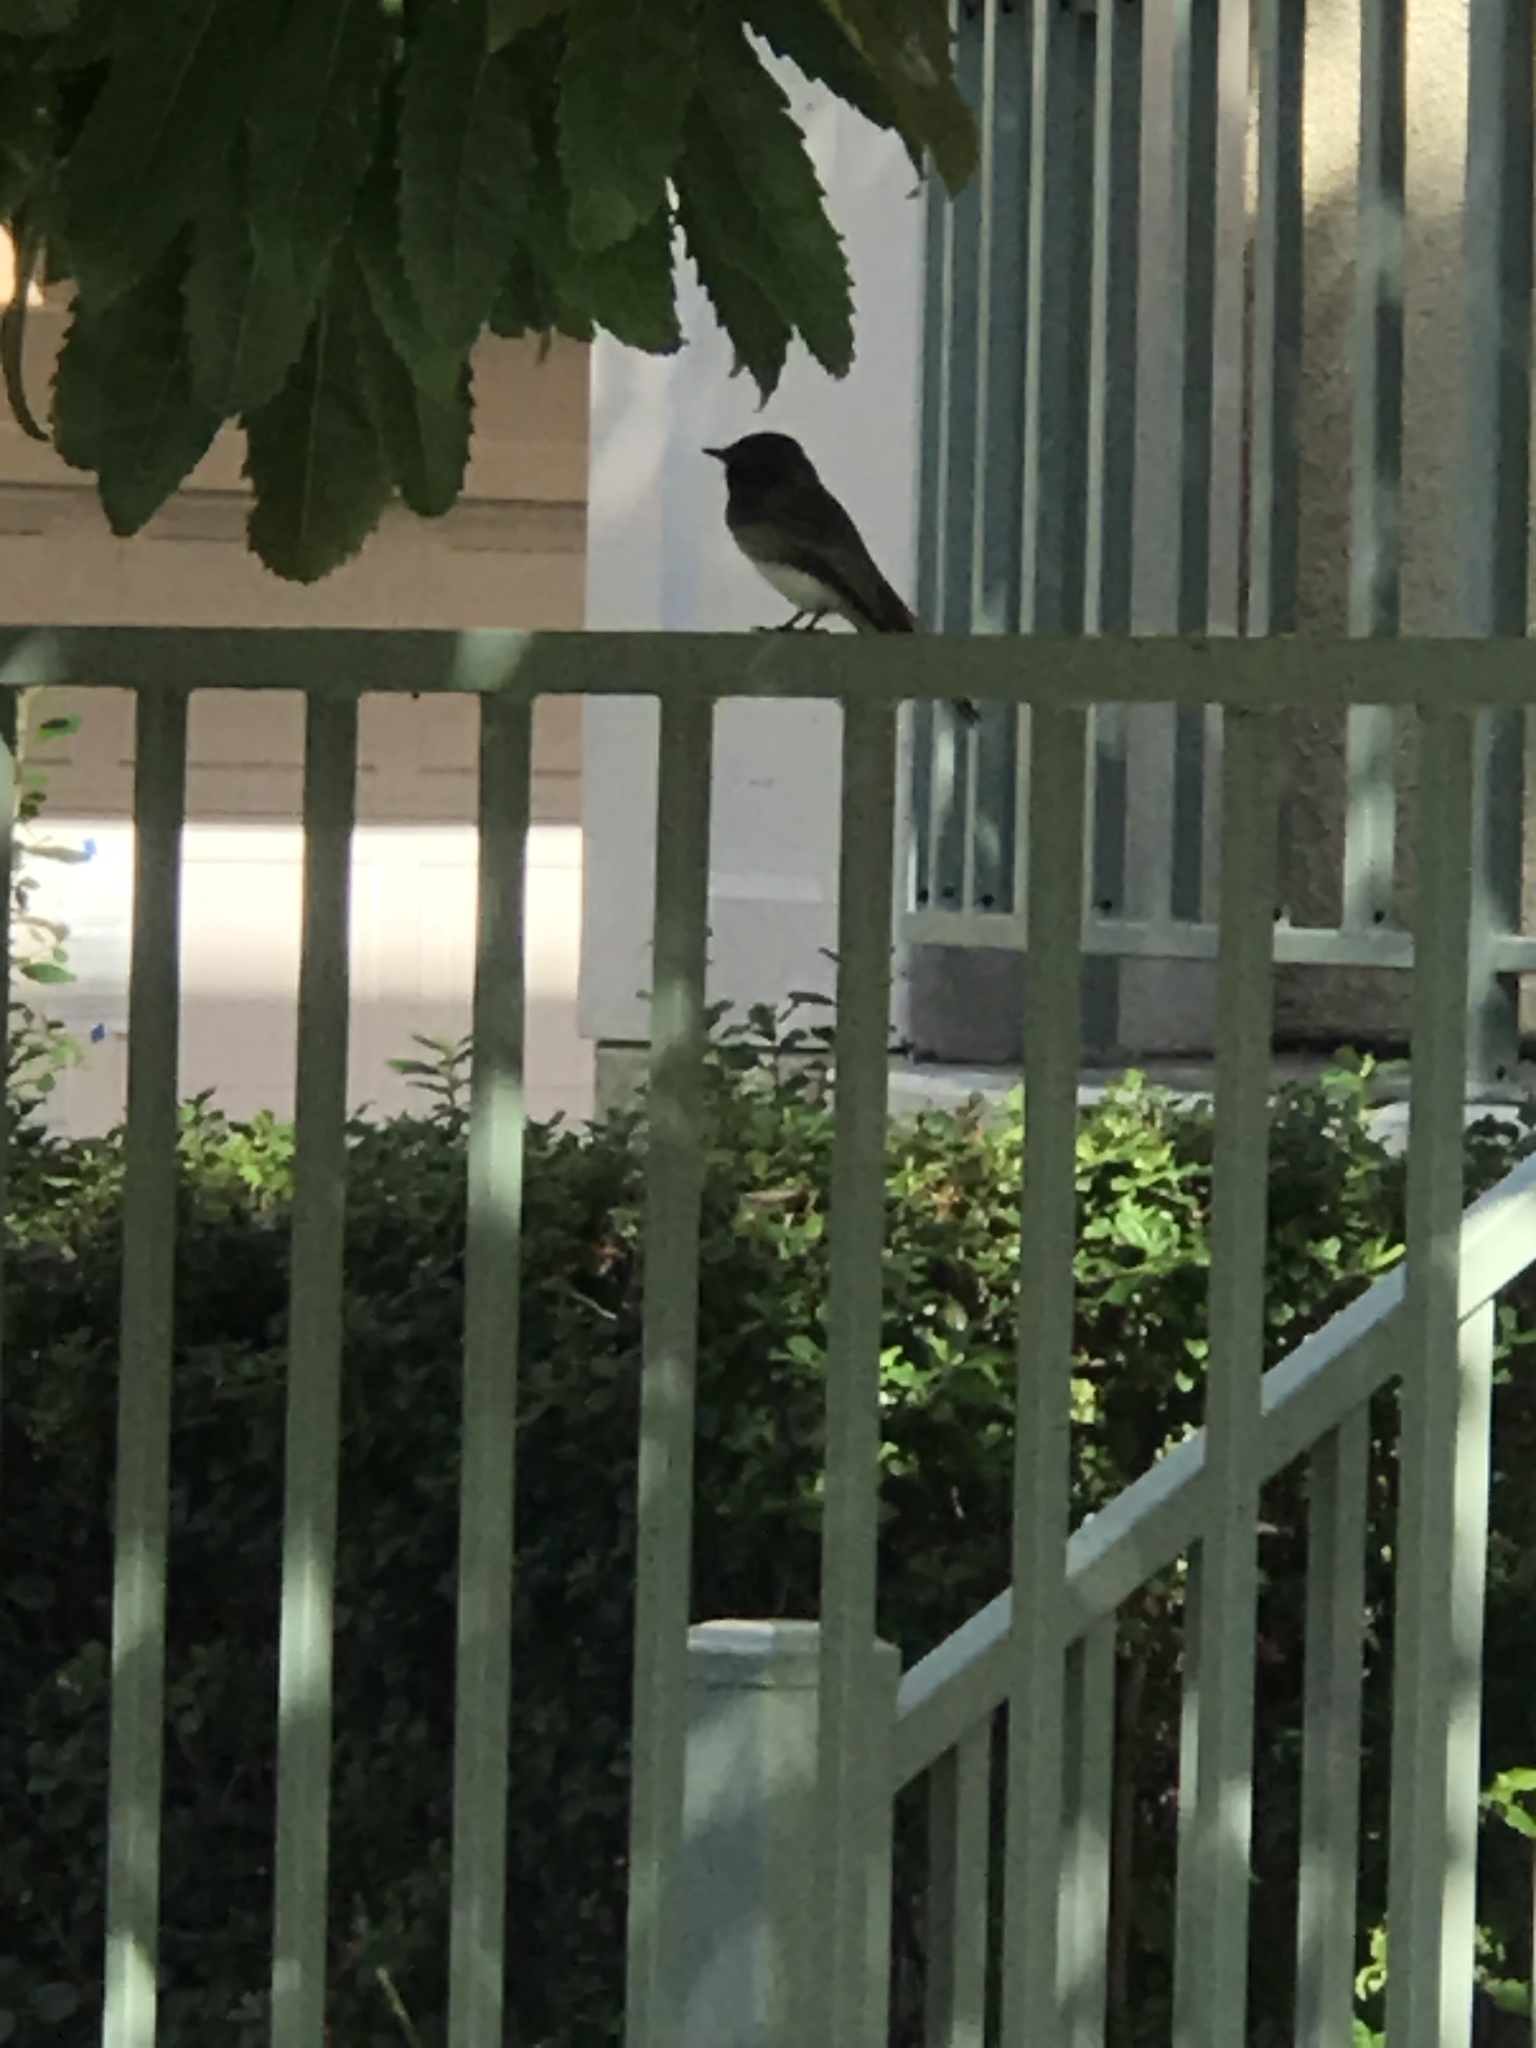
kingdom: Animalia
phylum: Chordata
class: Aves
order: Passeriformes
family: Tyrannidae
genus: Sayornis
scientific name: Sayornis nigricans
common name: Black phoebe
